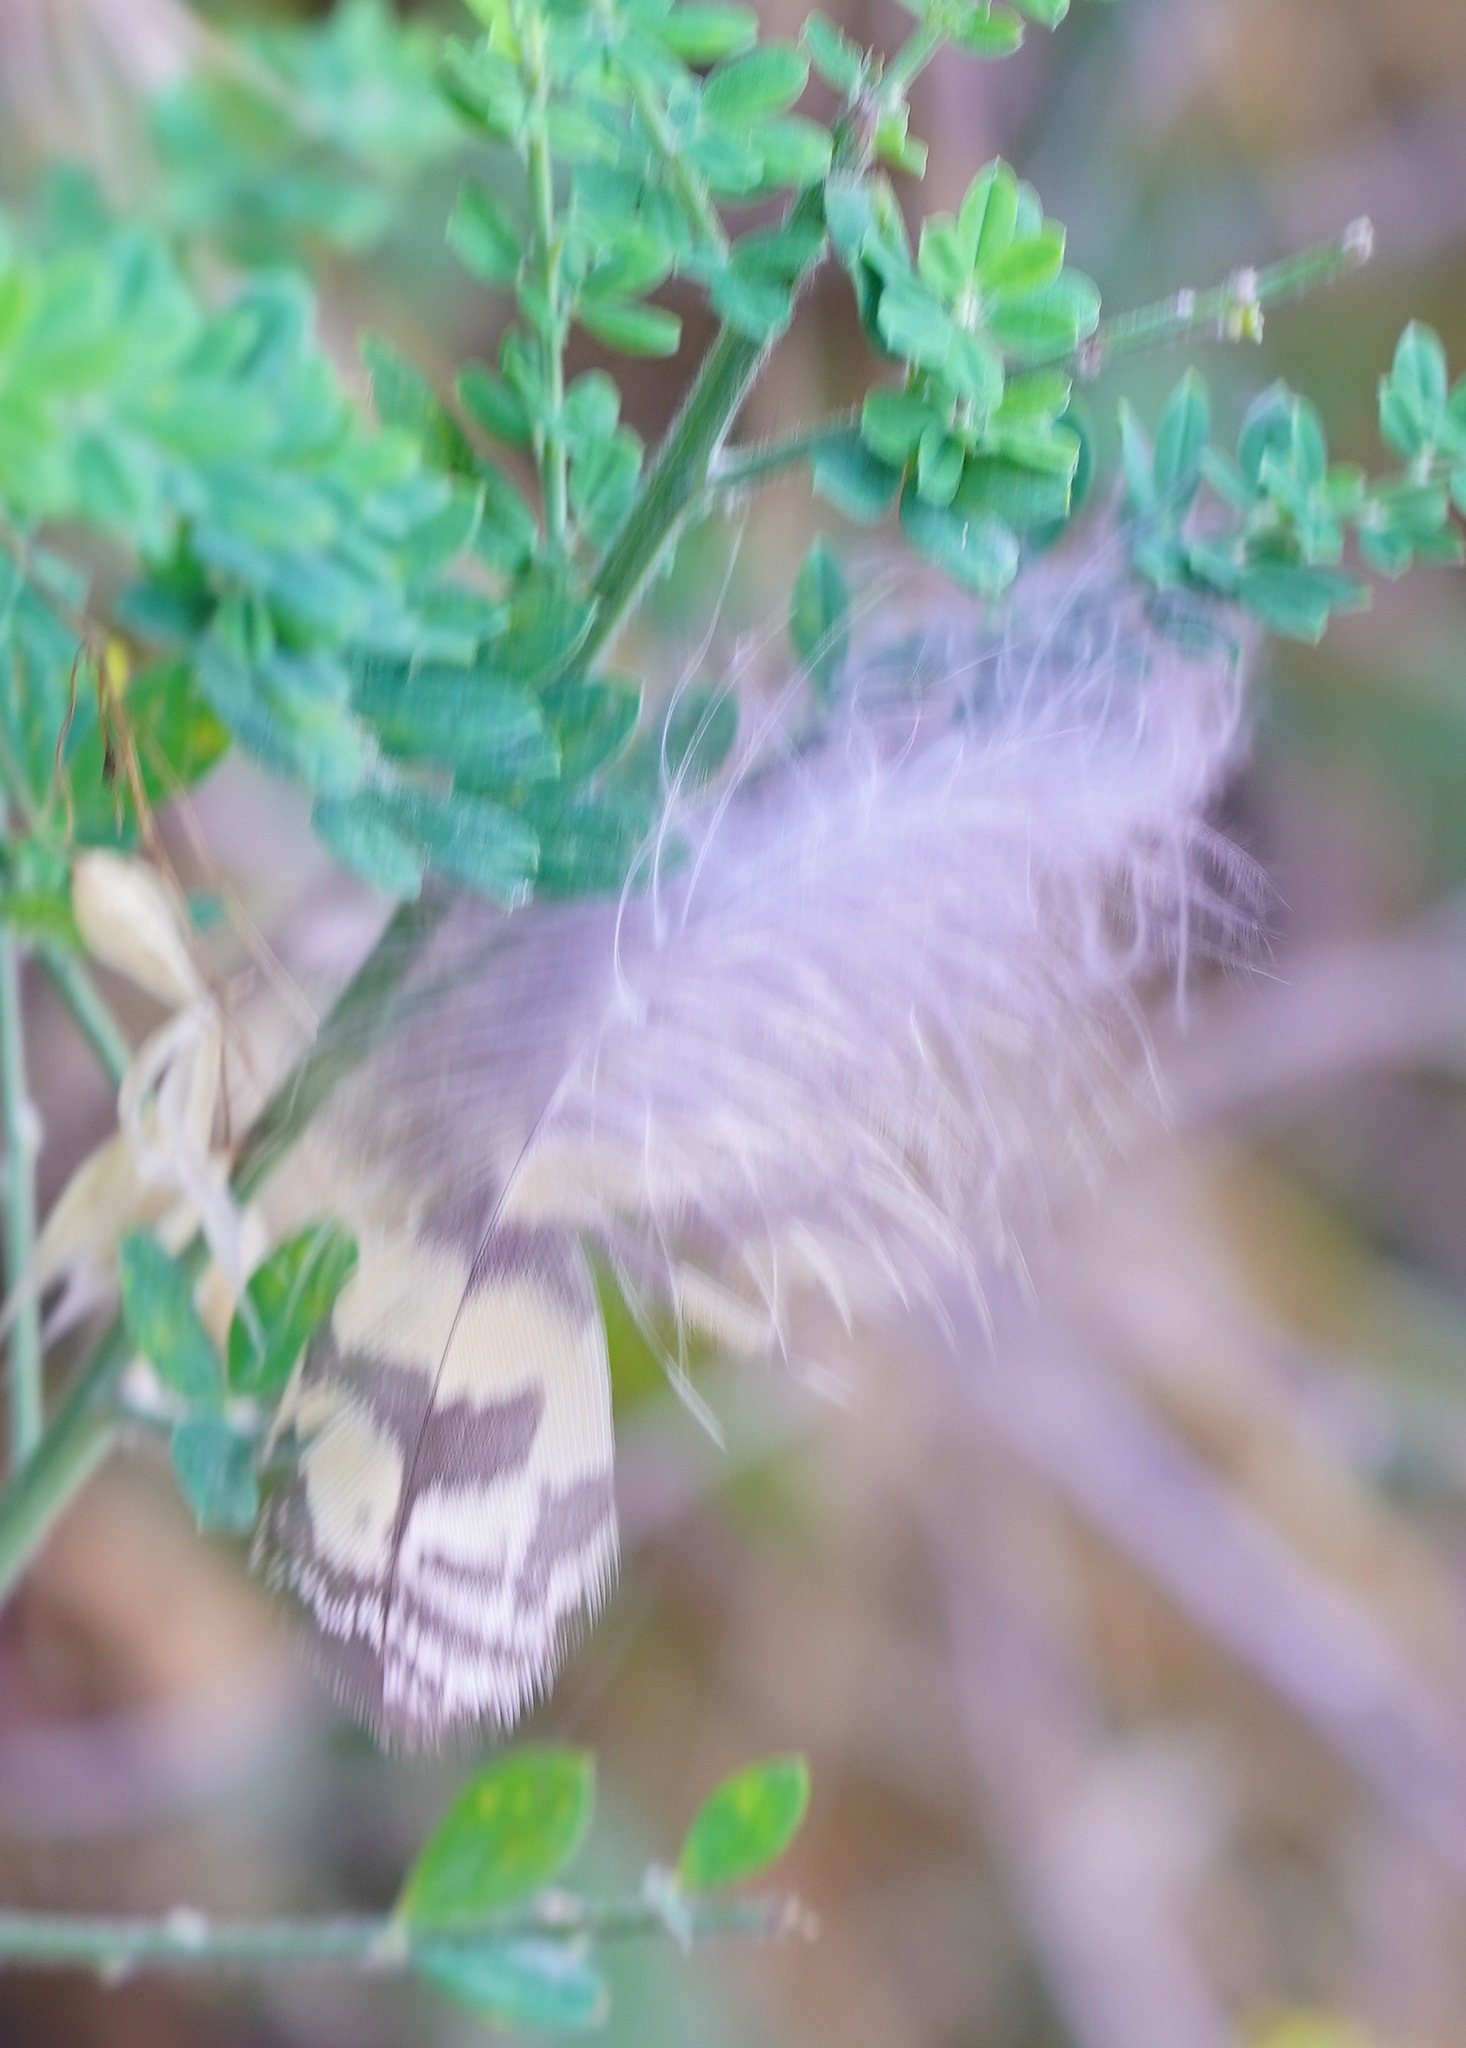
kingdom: Animalia
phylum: Chordata
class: Aves
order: Strigiformes
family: Strigidae
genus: Bubo
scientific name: Bubo virginianus
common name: Great horned owl
